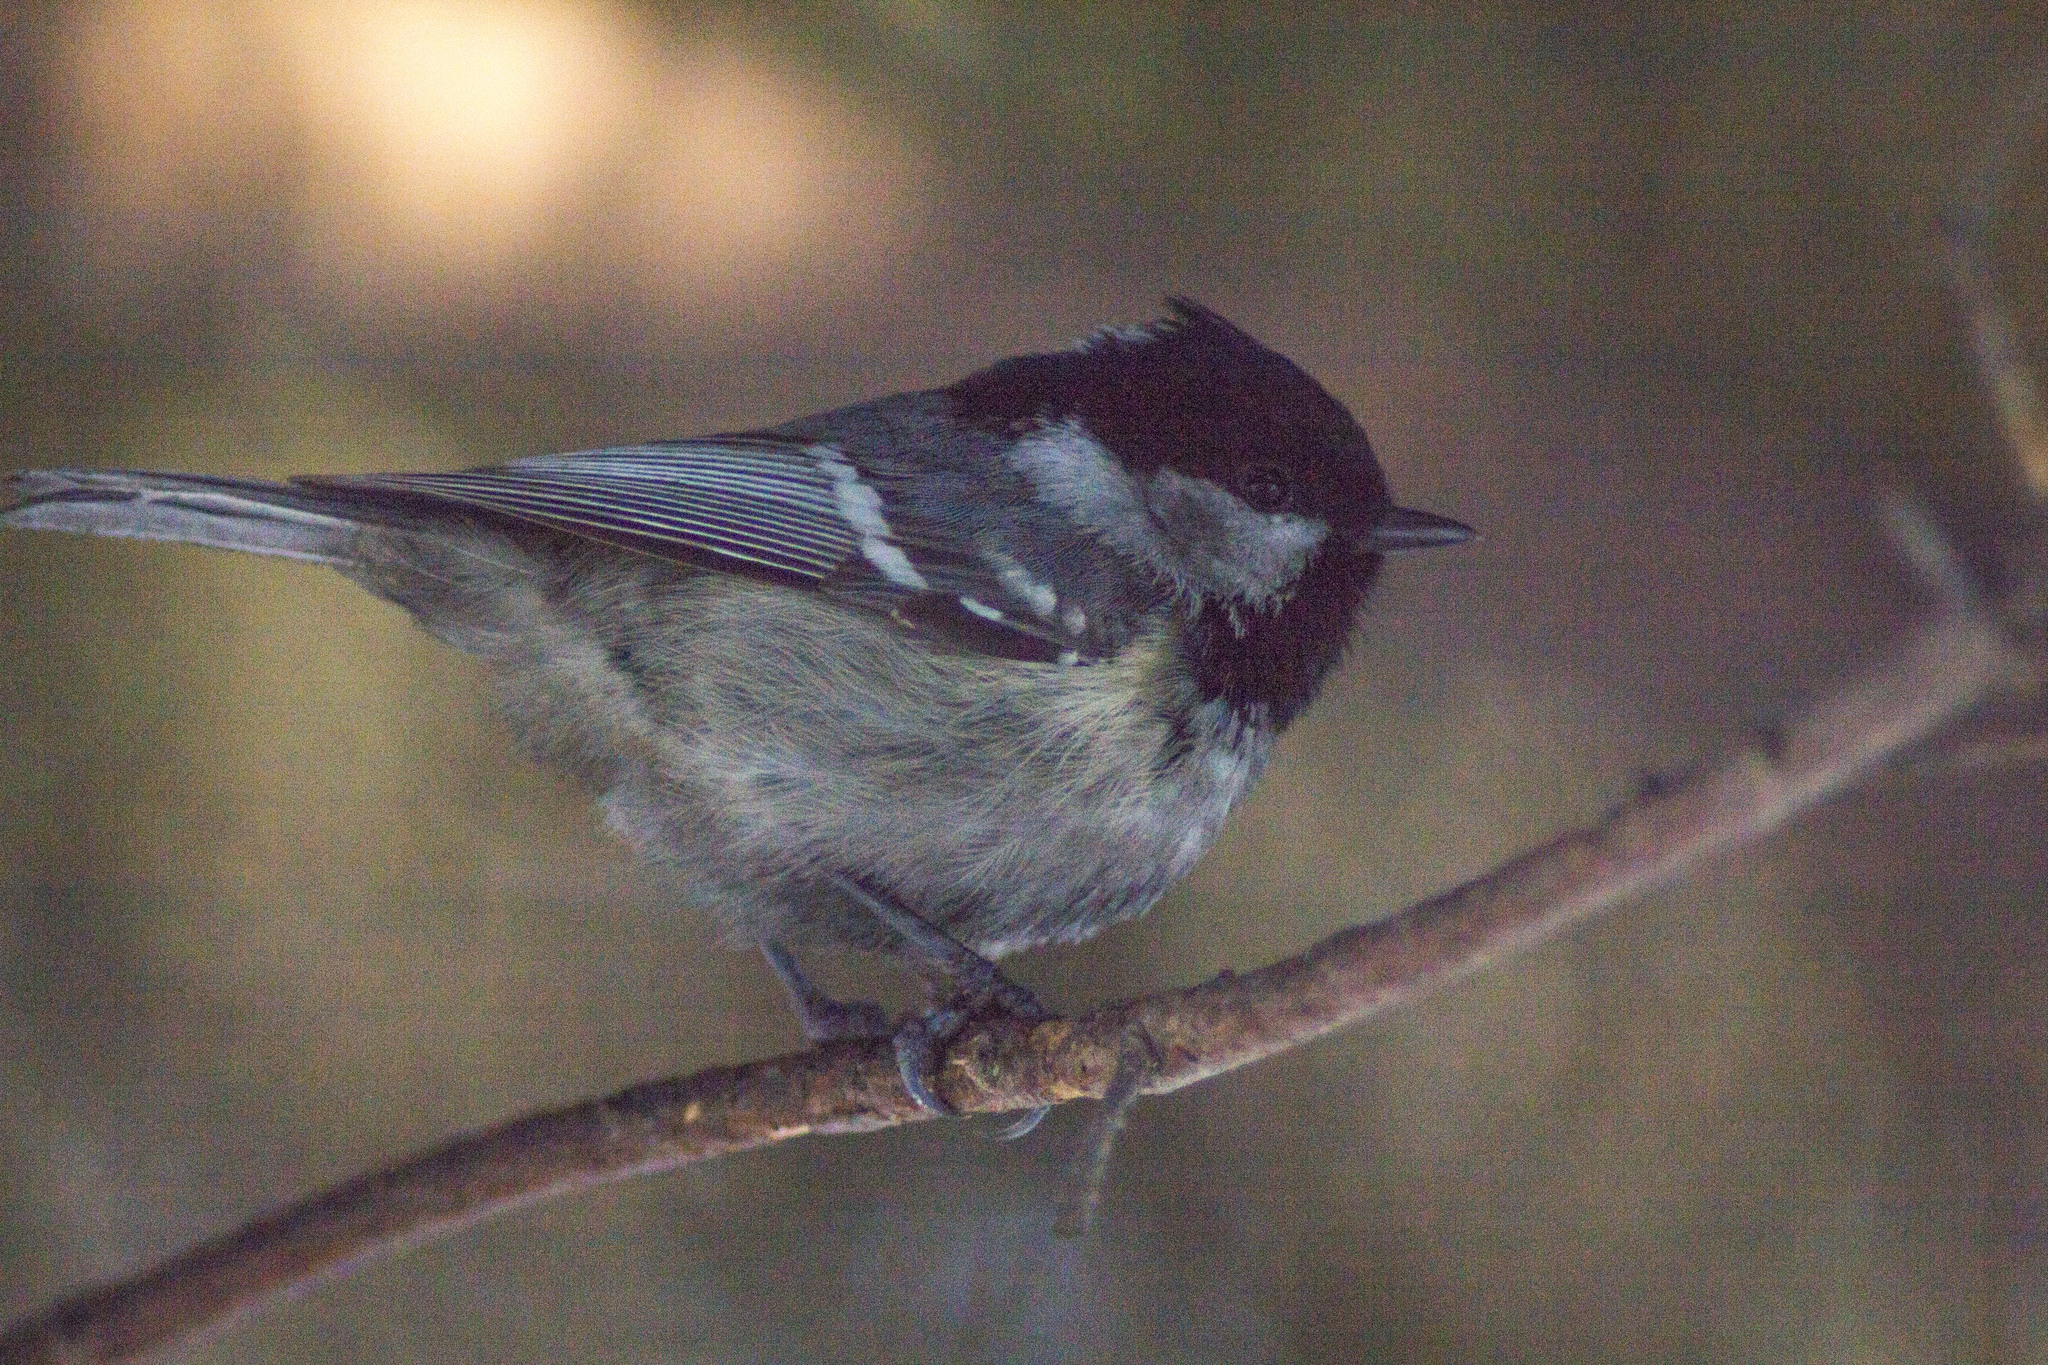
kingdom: Animalia
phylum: Chordata
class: Aves
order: Passeriformes
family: Paridae
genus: Periparus
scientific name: Periparus ater
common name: Coal tit
